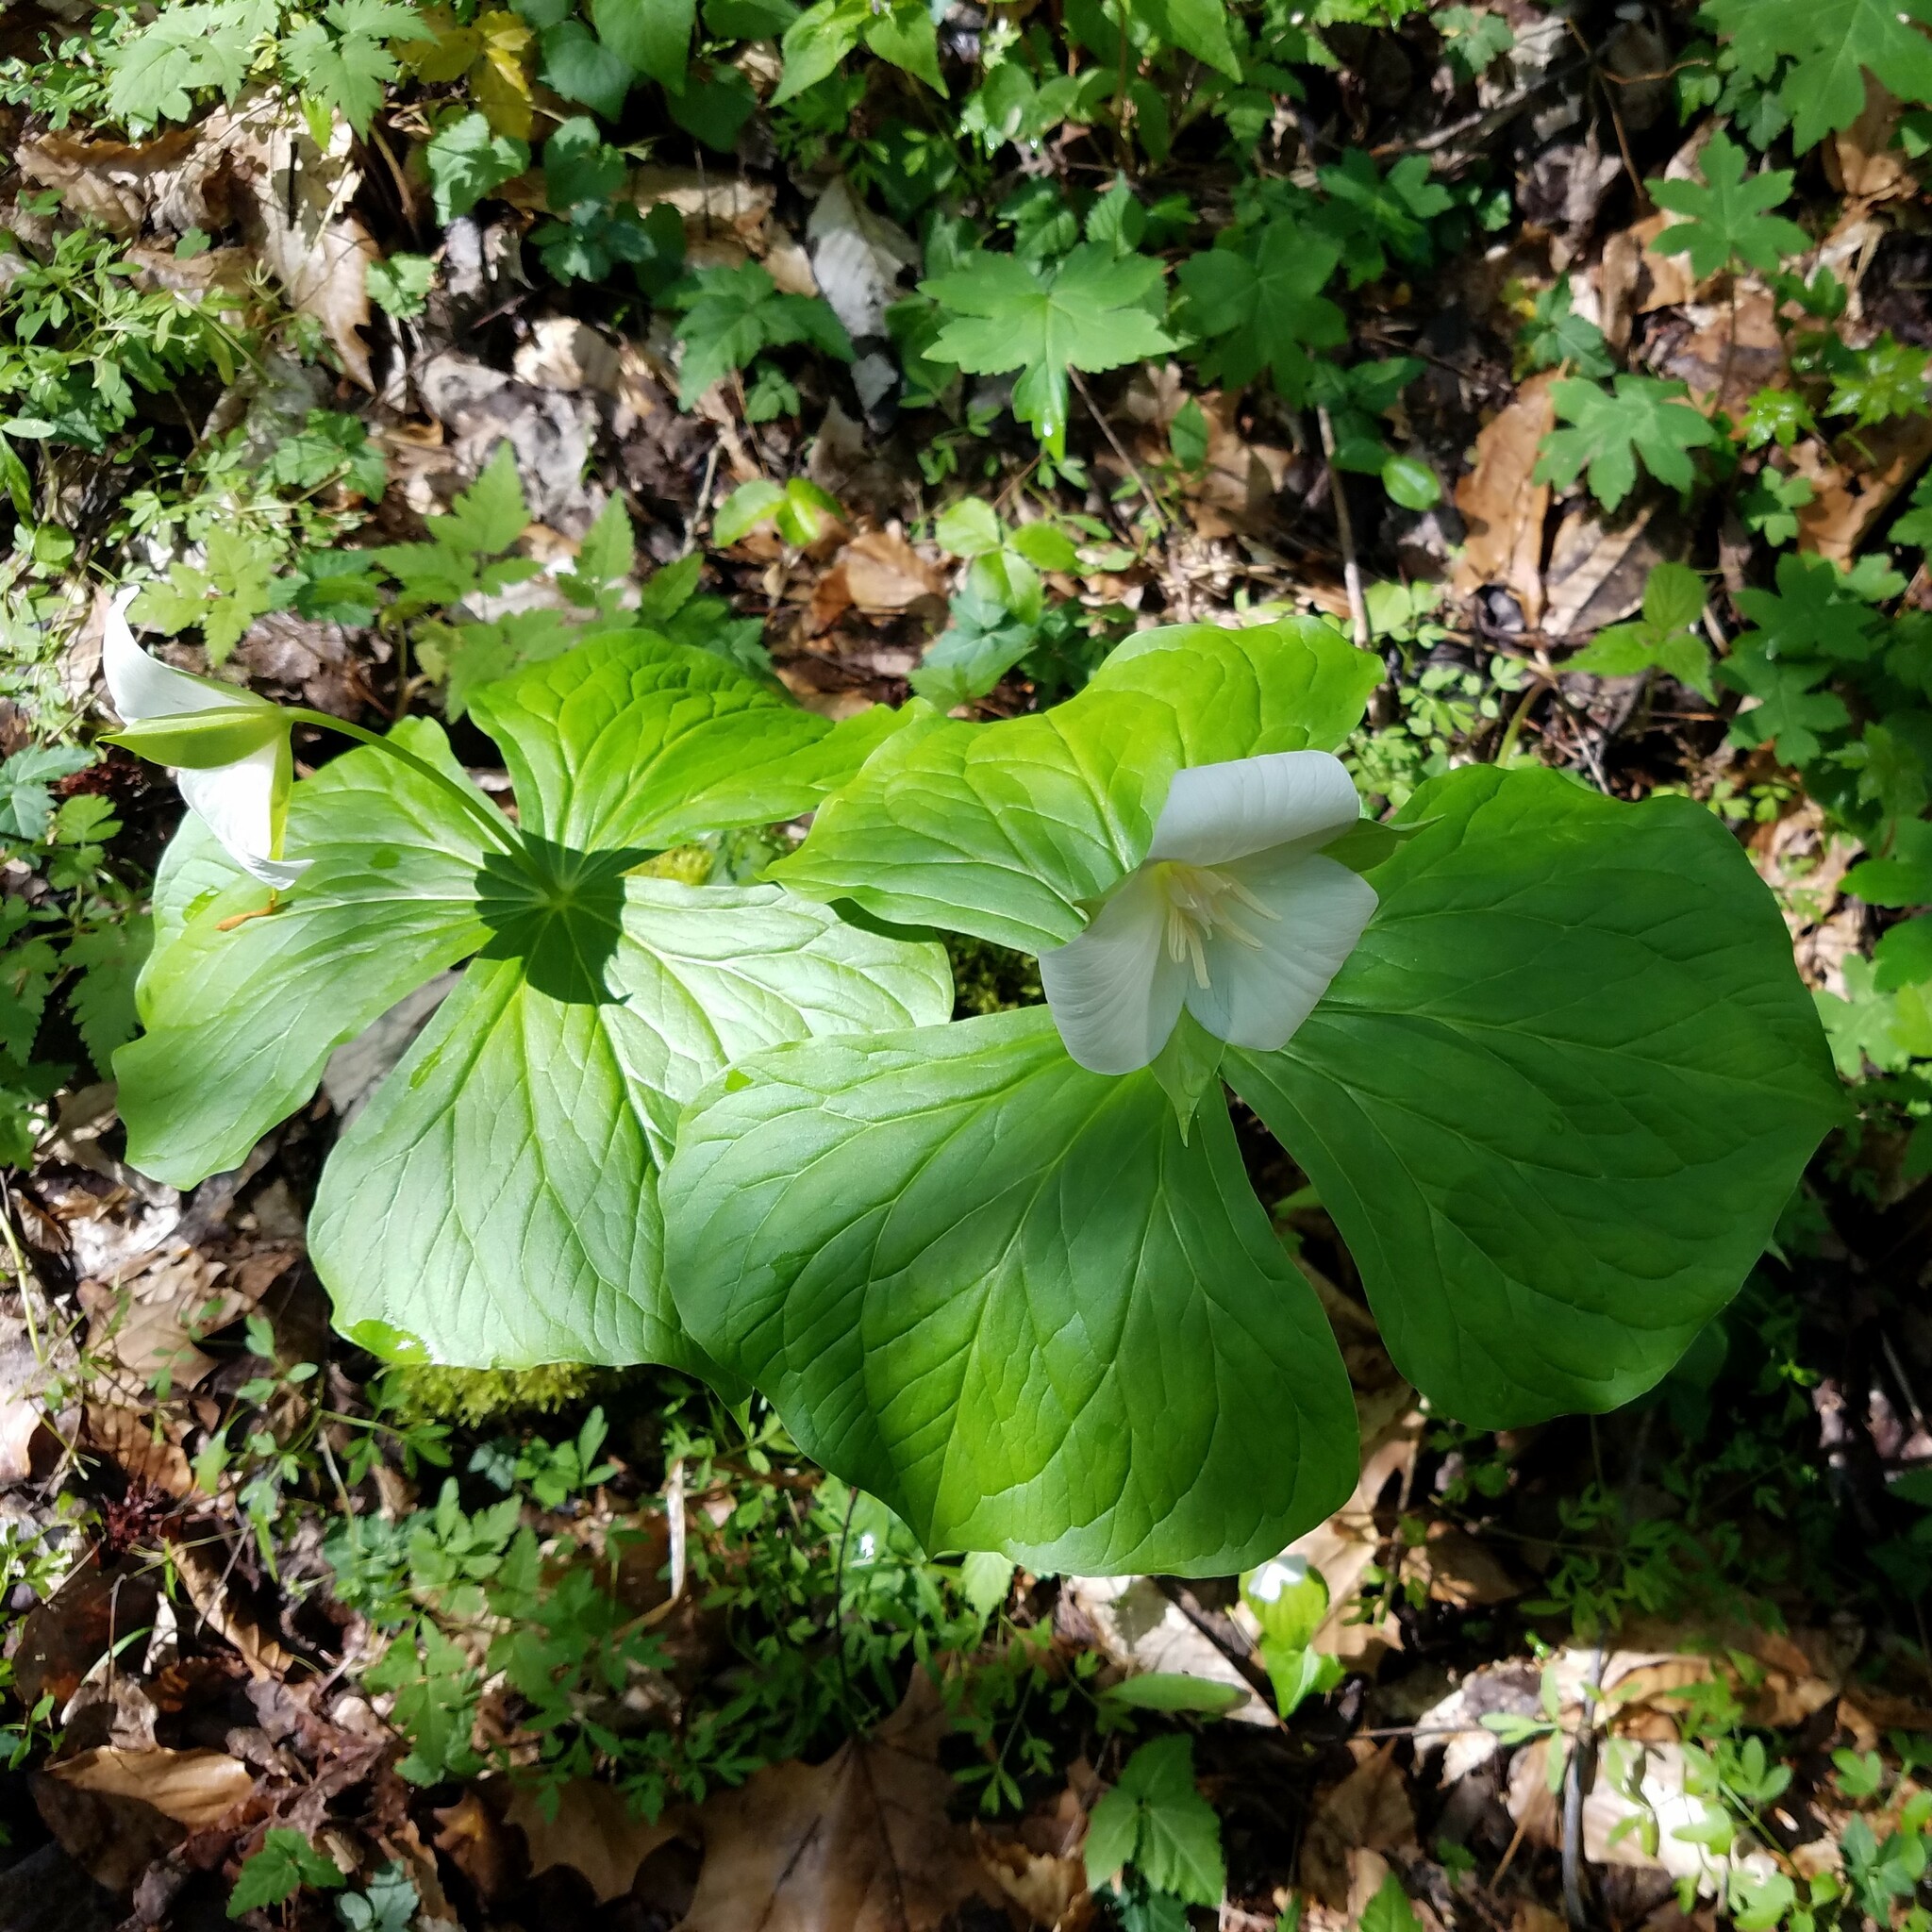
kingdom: Plantae
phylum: Tracheophyta
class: Liliopsida
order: Liliales
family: Melanthiaceae
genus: Trillium
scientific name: Trillium flexipes
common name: Drooping trillium
